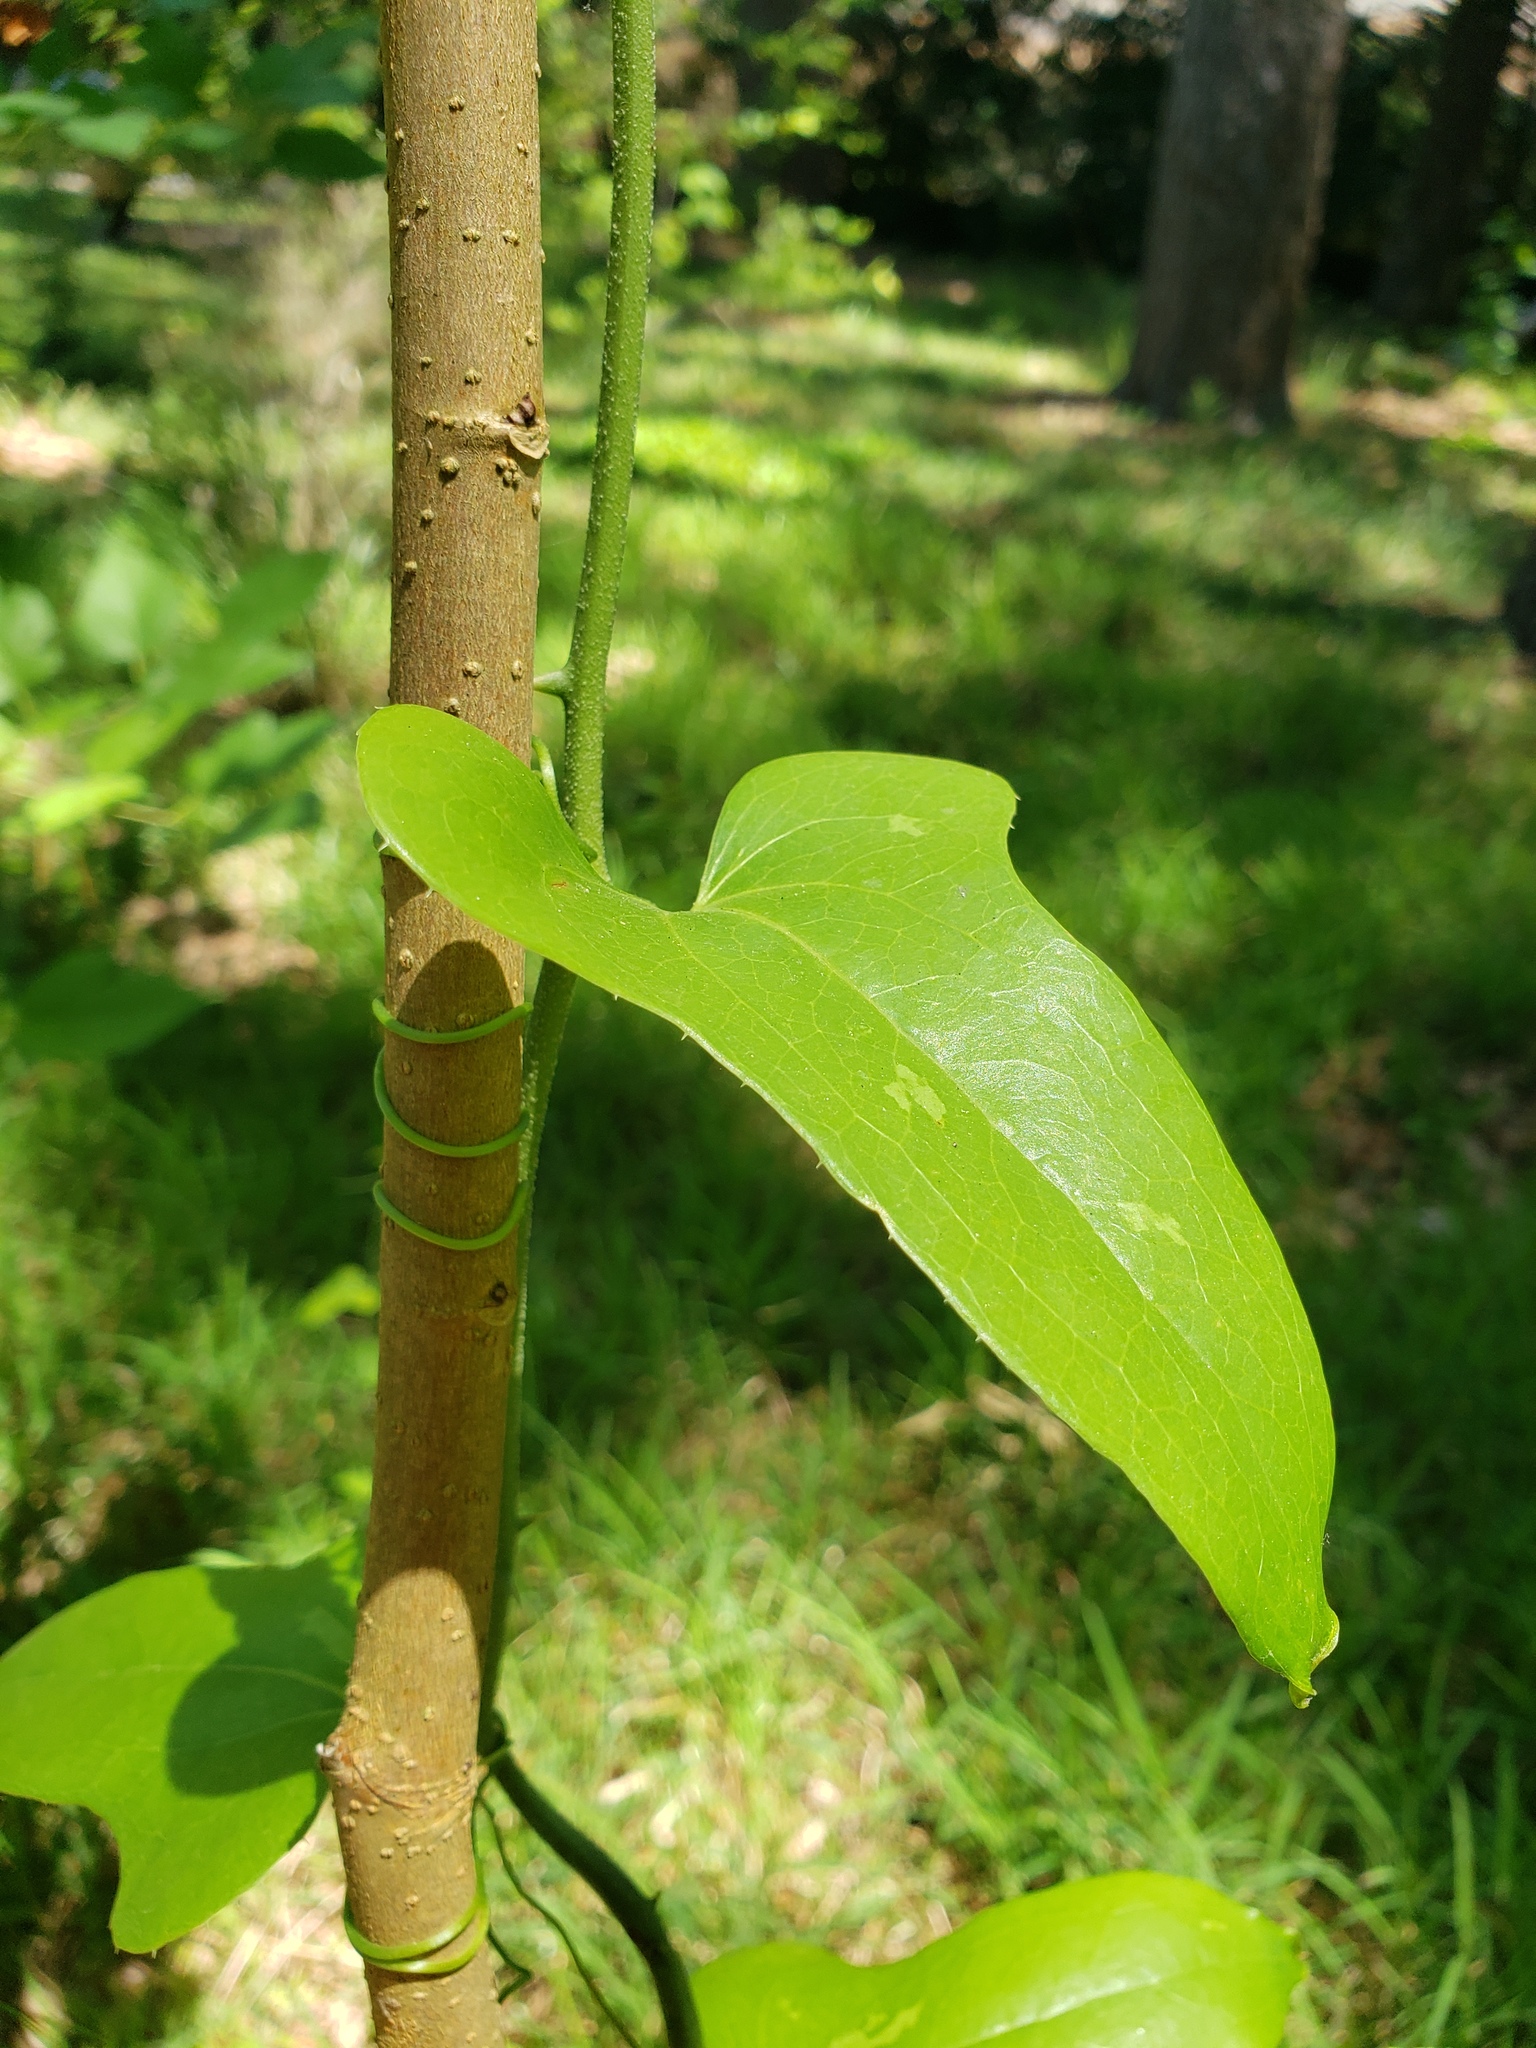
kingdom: Plantae
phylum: Tracheophyta
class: Liliopsida
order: Liliales
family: Smilacaceae
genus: Smilax
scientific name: Smilax bona-nox
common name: Catbrier
